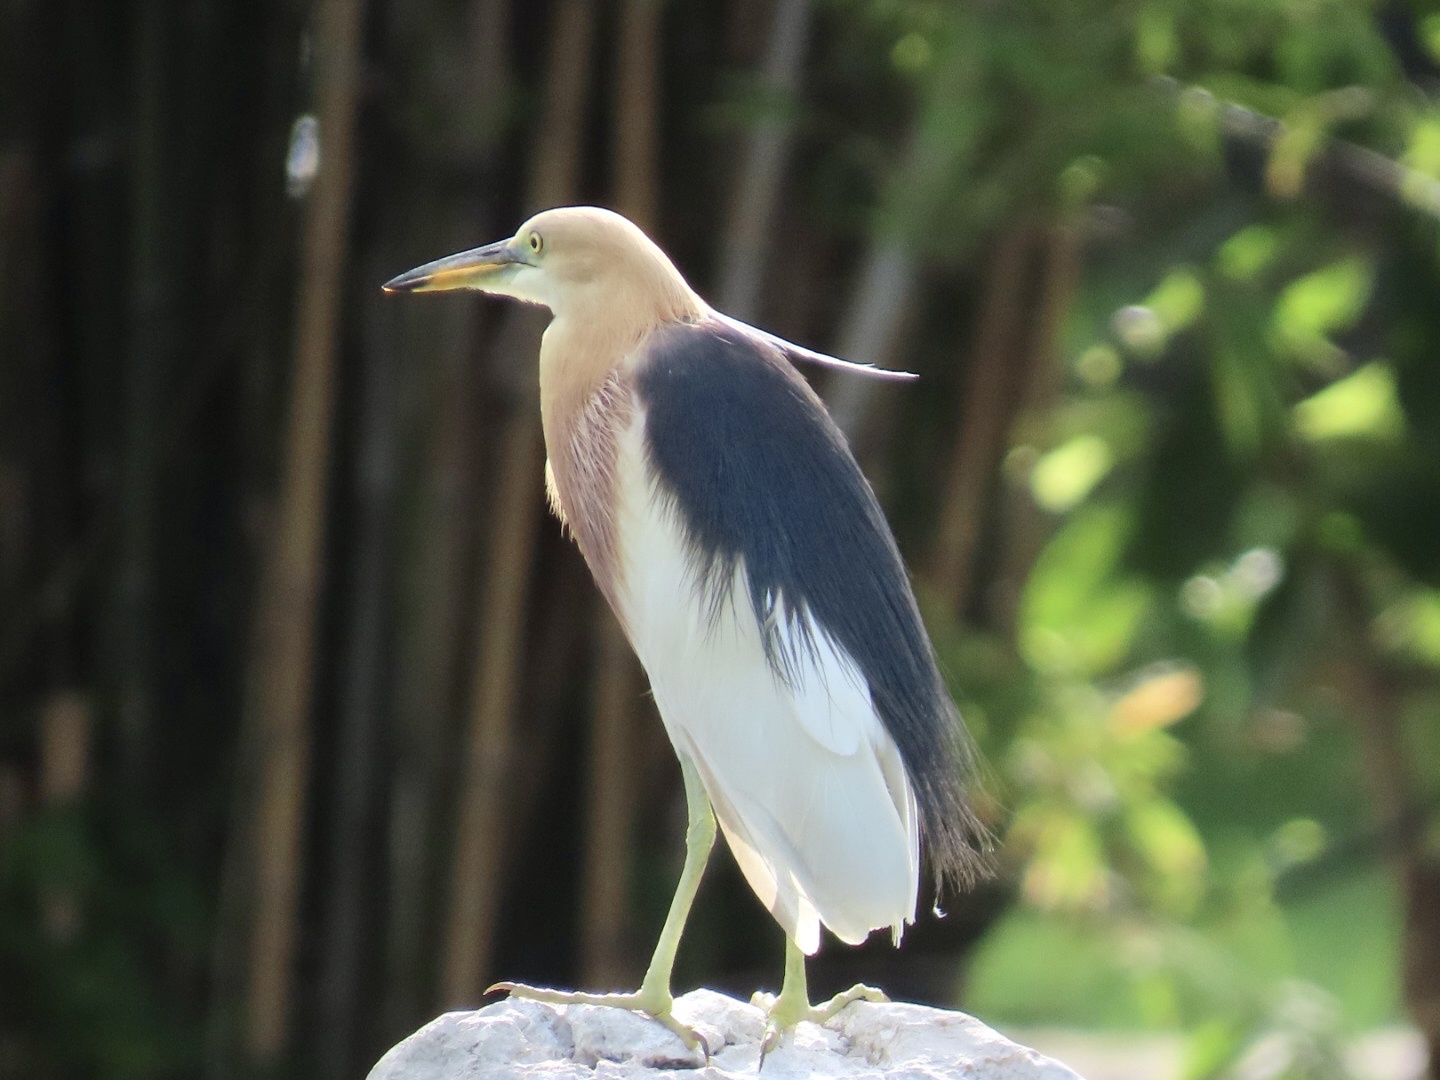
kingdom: Animalia
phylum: Chordata
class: Aves
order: Pelecaniformes
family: Ardeidae
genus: Ardeola
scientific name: Ardeola speciosa
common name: Javan pond heron
